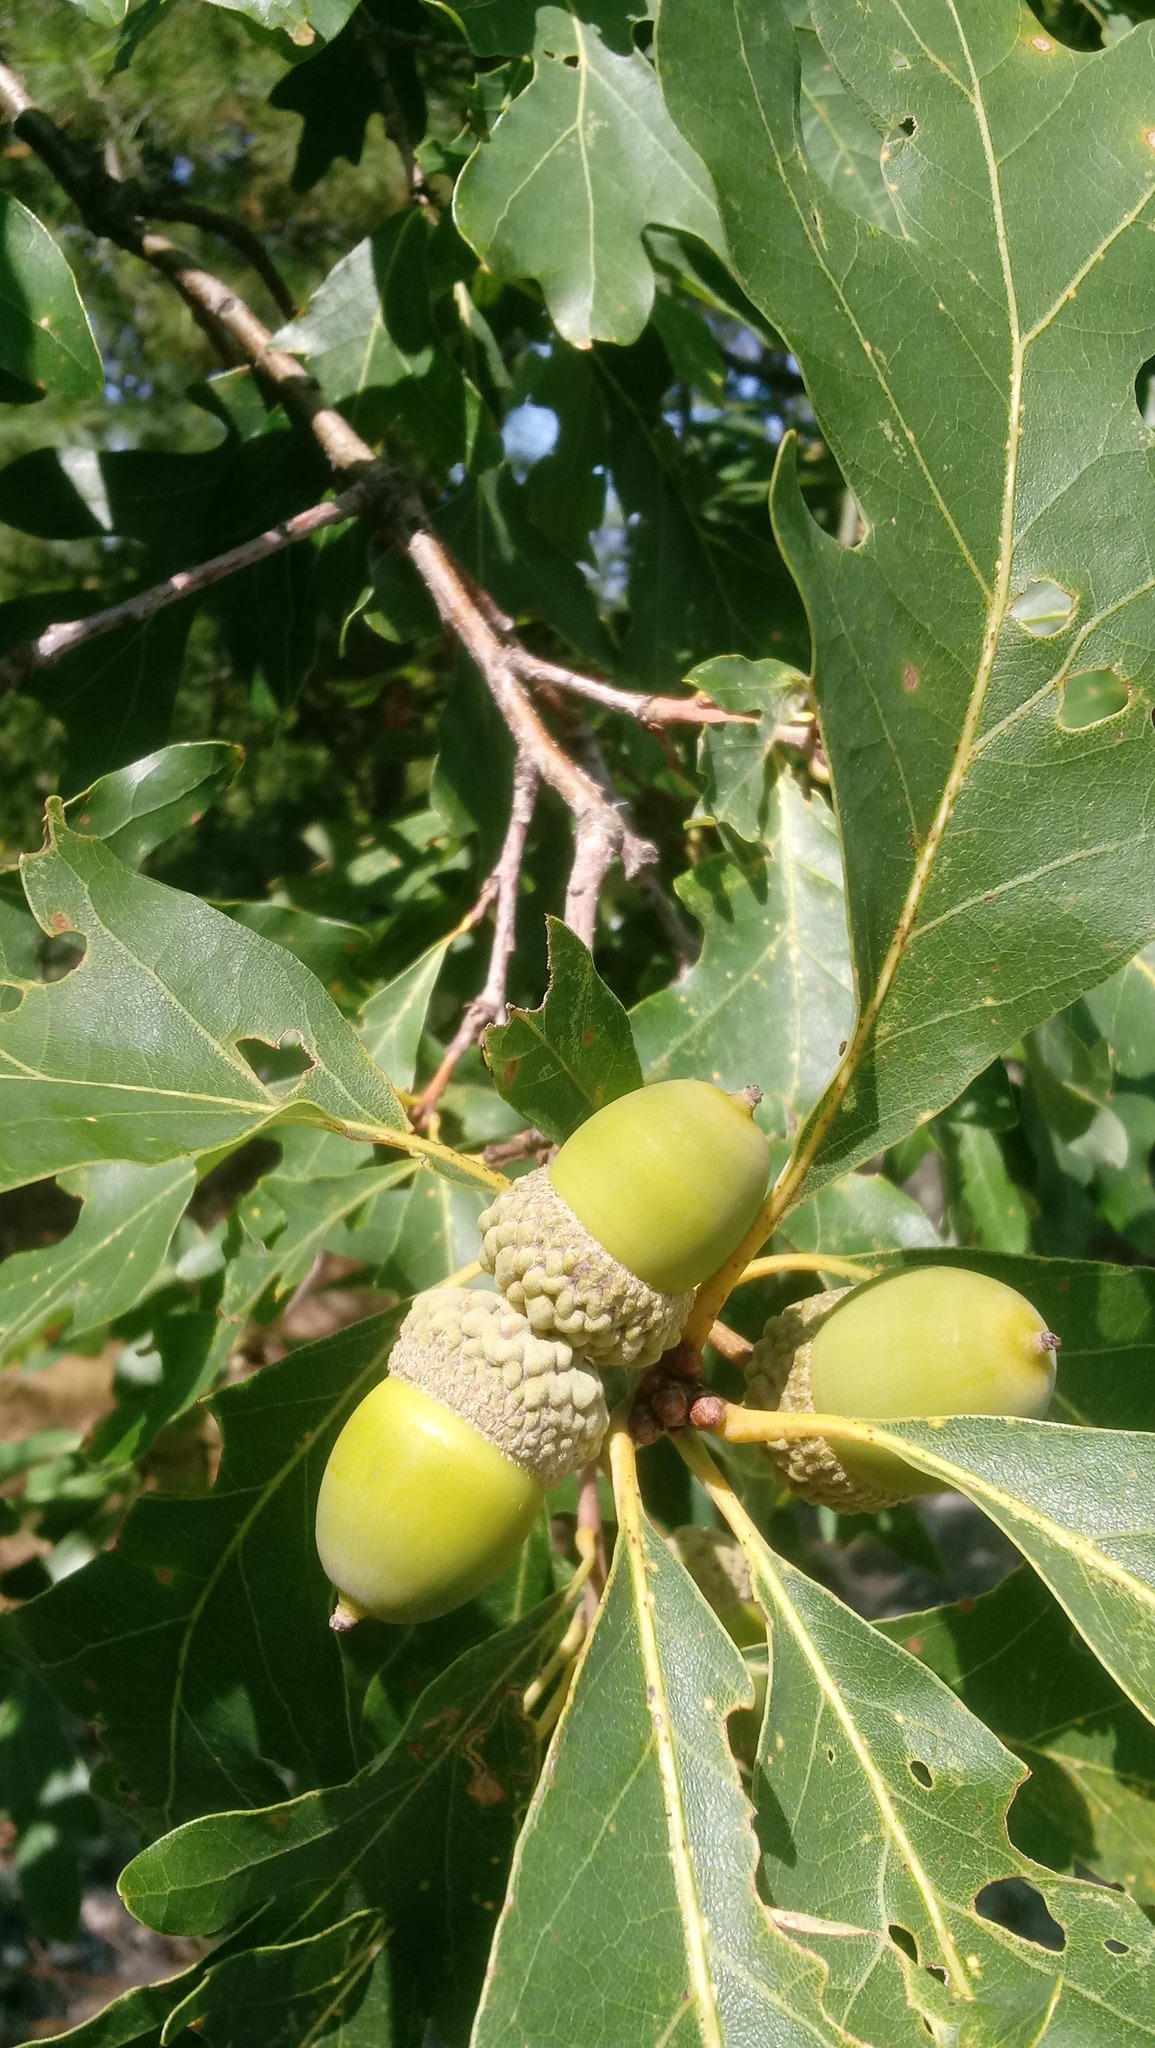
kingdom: Plantae
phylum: Tracheophyta
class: Magnoliopsida
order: Fagales
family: Fagaceae
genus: Quercus
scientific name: Quercus alba
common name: White oak
